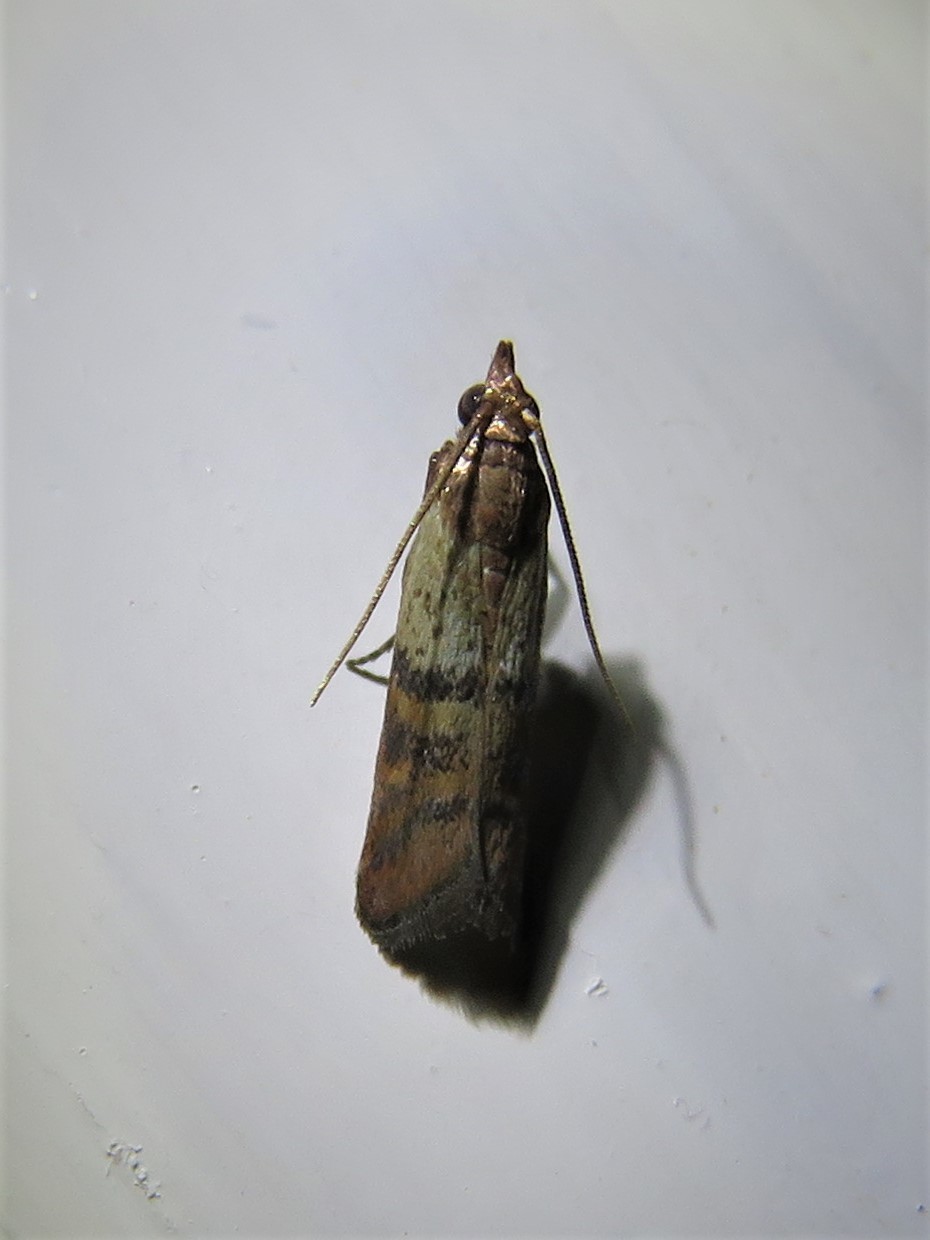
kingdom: Animalia
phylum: Arthropoda
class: Insecta
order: Lepidoptera
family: Pyralidae
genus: Plodia
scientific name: Plodia interpunctella
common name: Indian meal moth
